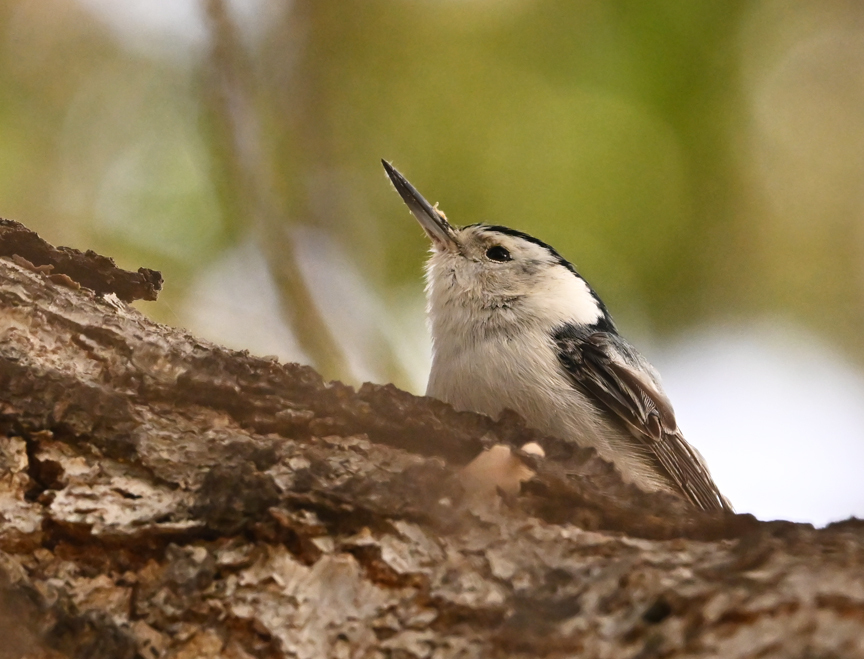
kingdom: Animalia
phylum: Chordata
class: Aves
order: Passeriformes
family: Sittidae
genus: Sitta
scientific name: Sitta carolinensis
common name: White-breasted nuthatch
